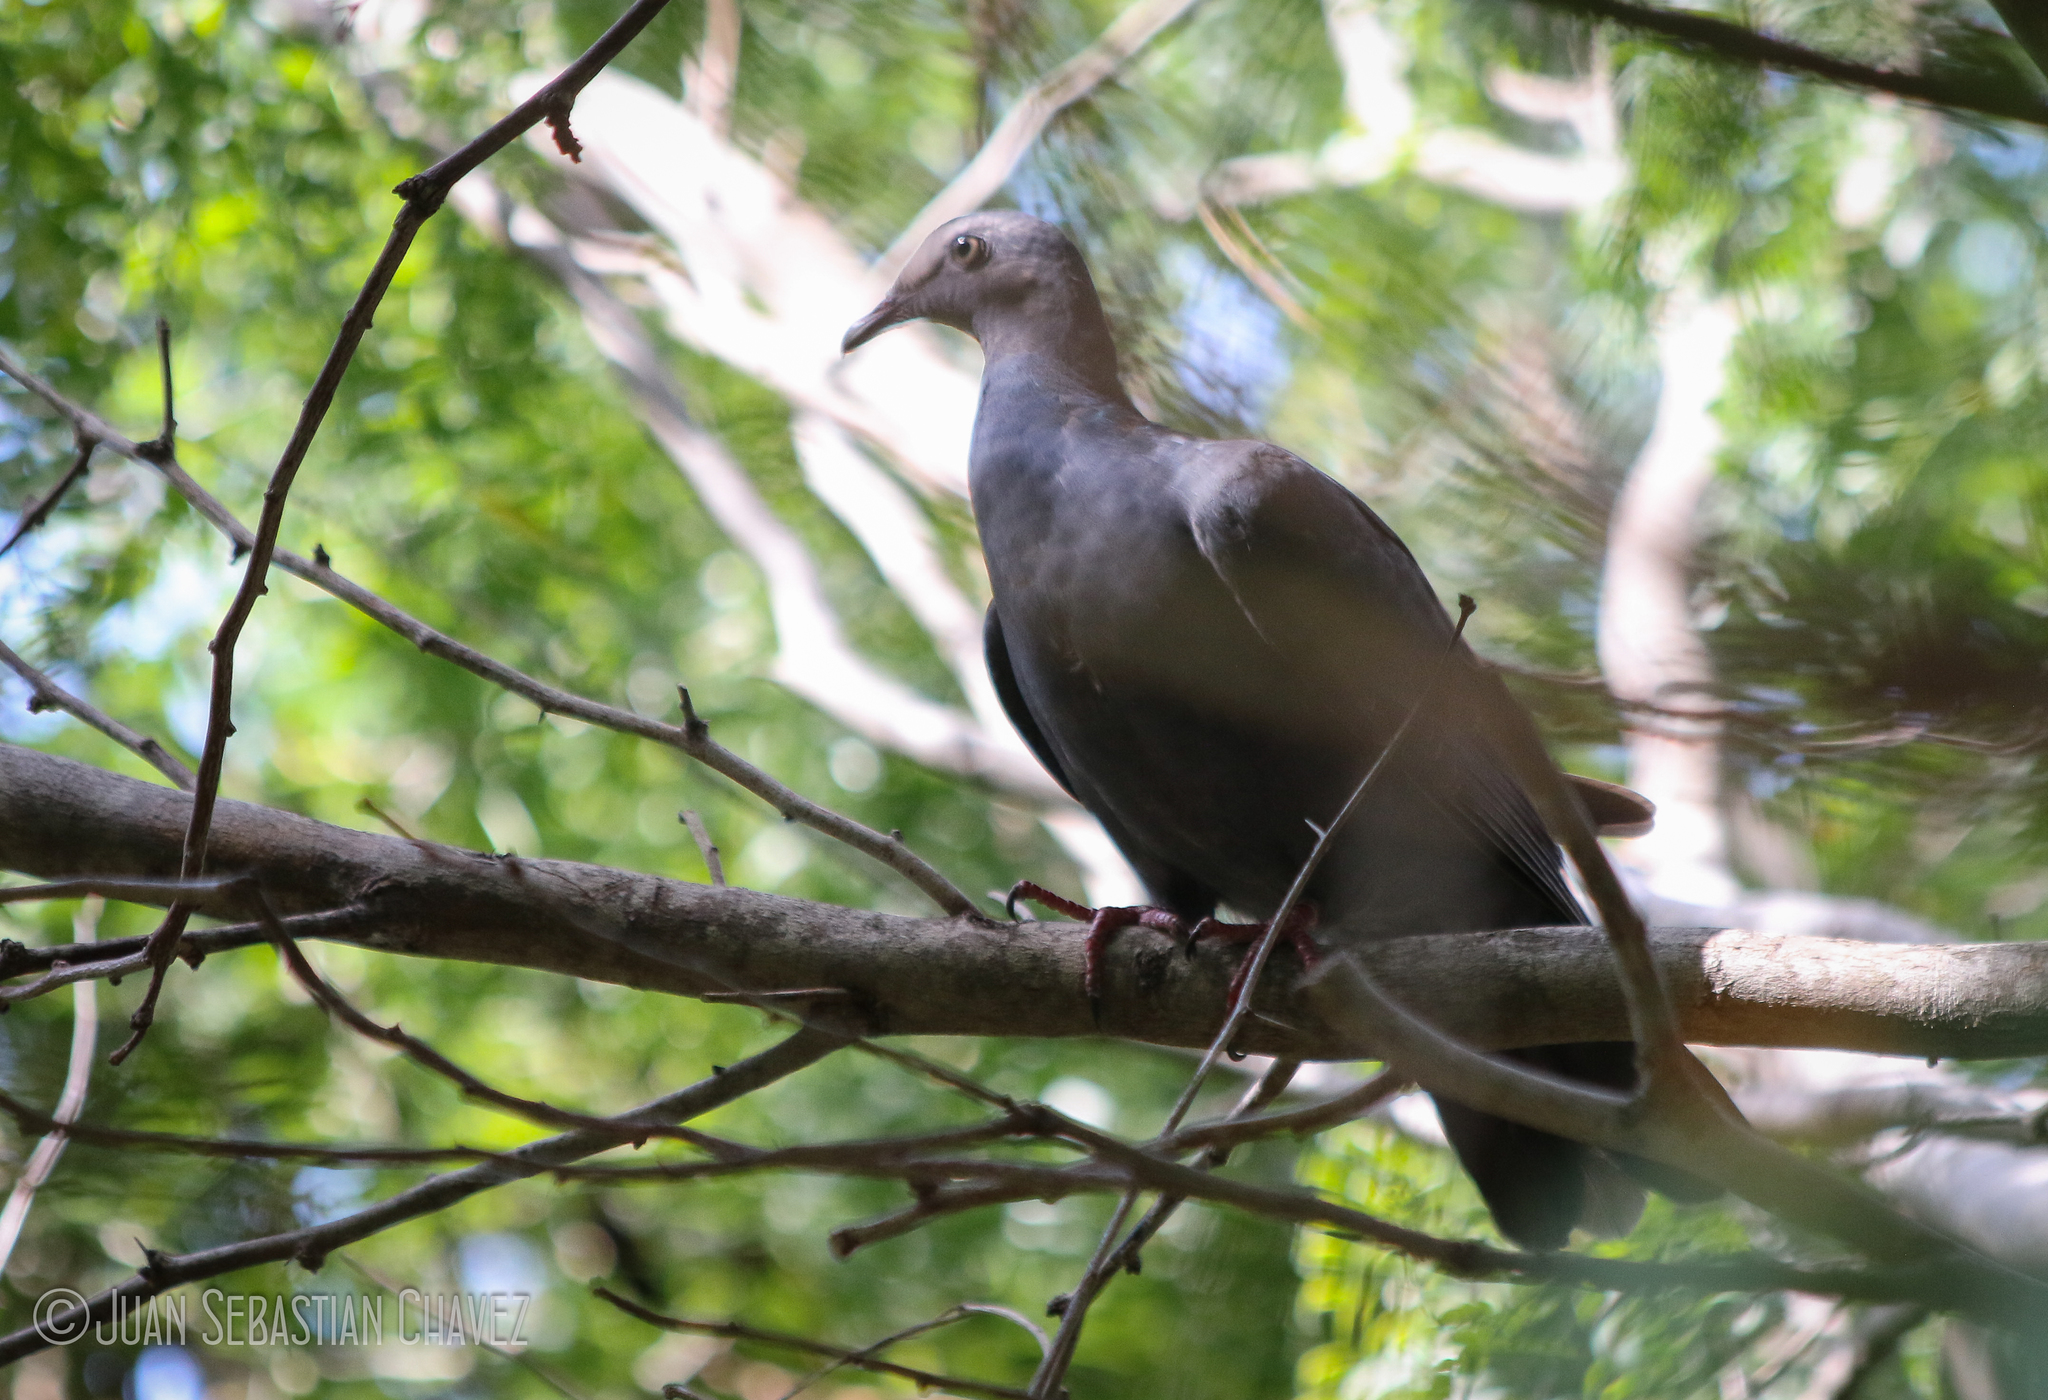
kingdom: Animalia
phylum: Chordata
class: Aves
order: Columbiformes
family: Columbidae
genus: Patagioenas
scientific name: Patagioenas leucocephala
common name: White-crowned pigeon
